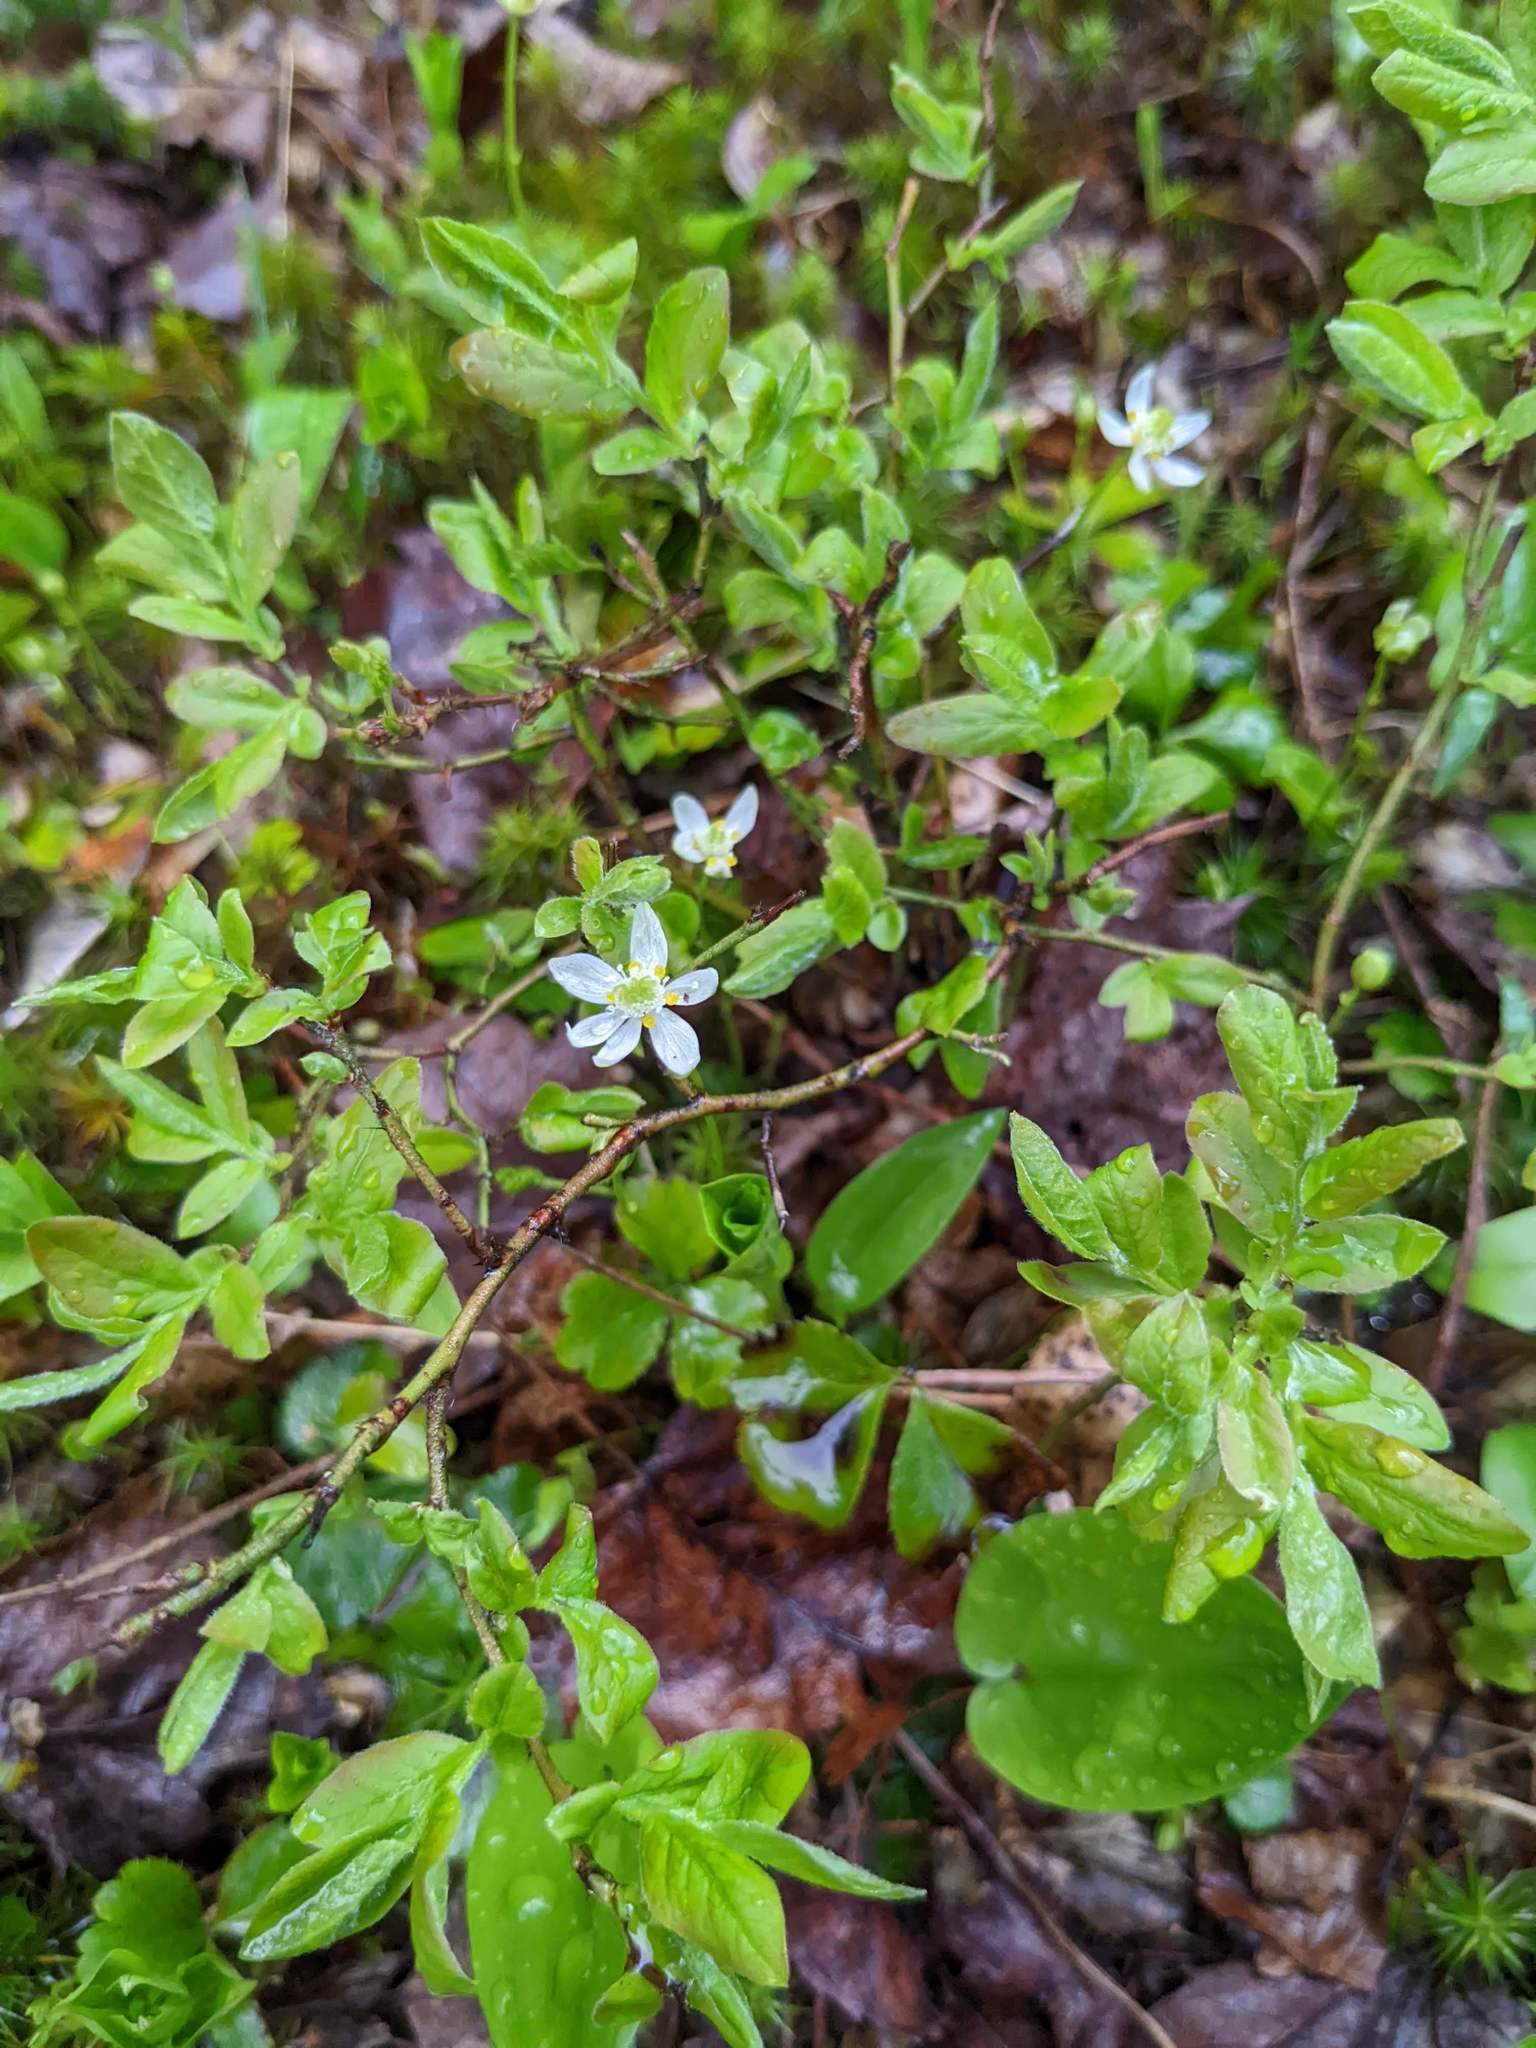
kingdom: Plantae
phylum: Tracheophyta
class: Magnoliopsida
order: Ranunculales
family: Ranunculaceae
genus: Coptis
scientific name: Coptis trifolia
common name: Canker-root
